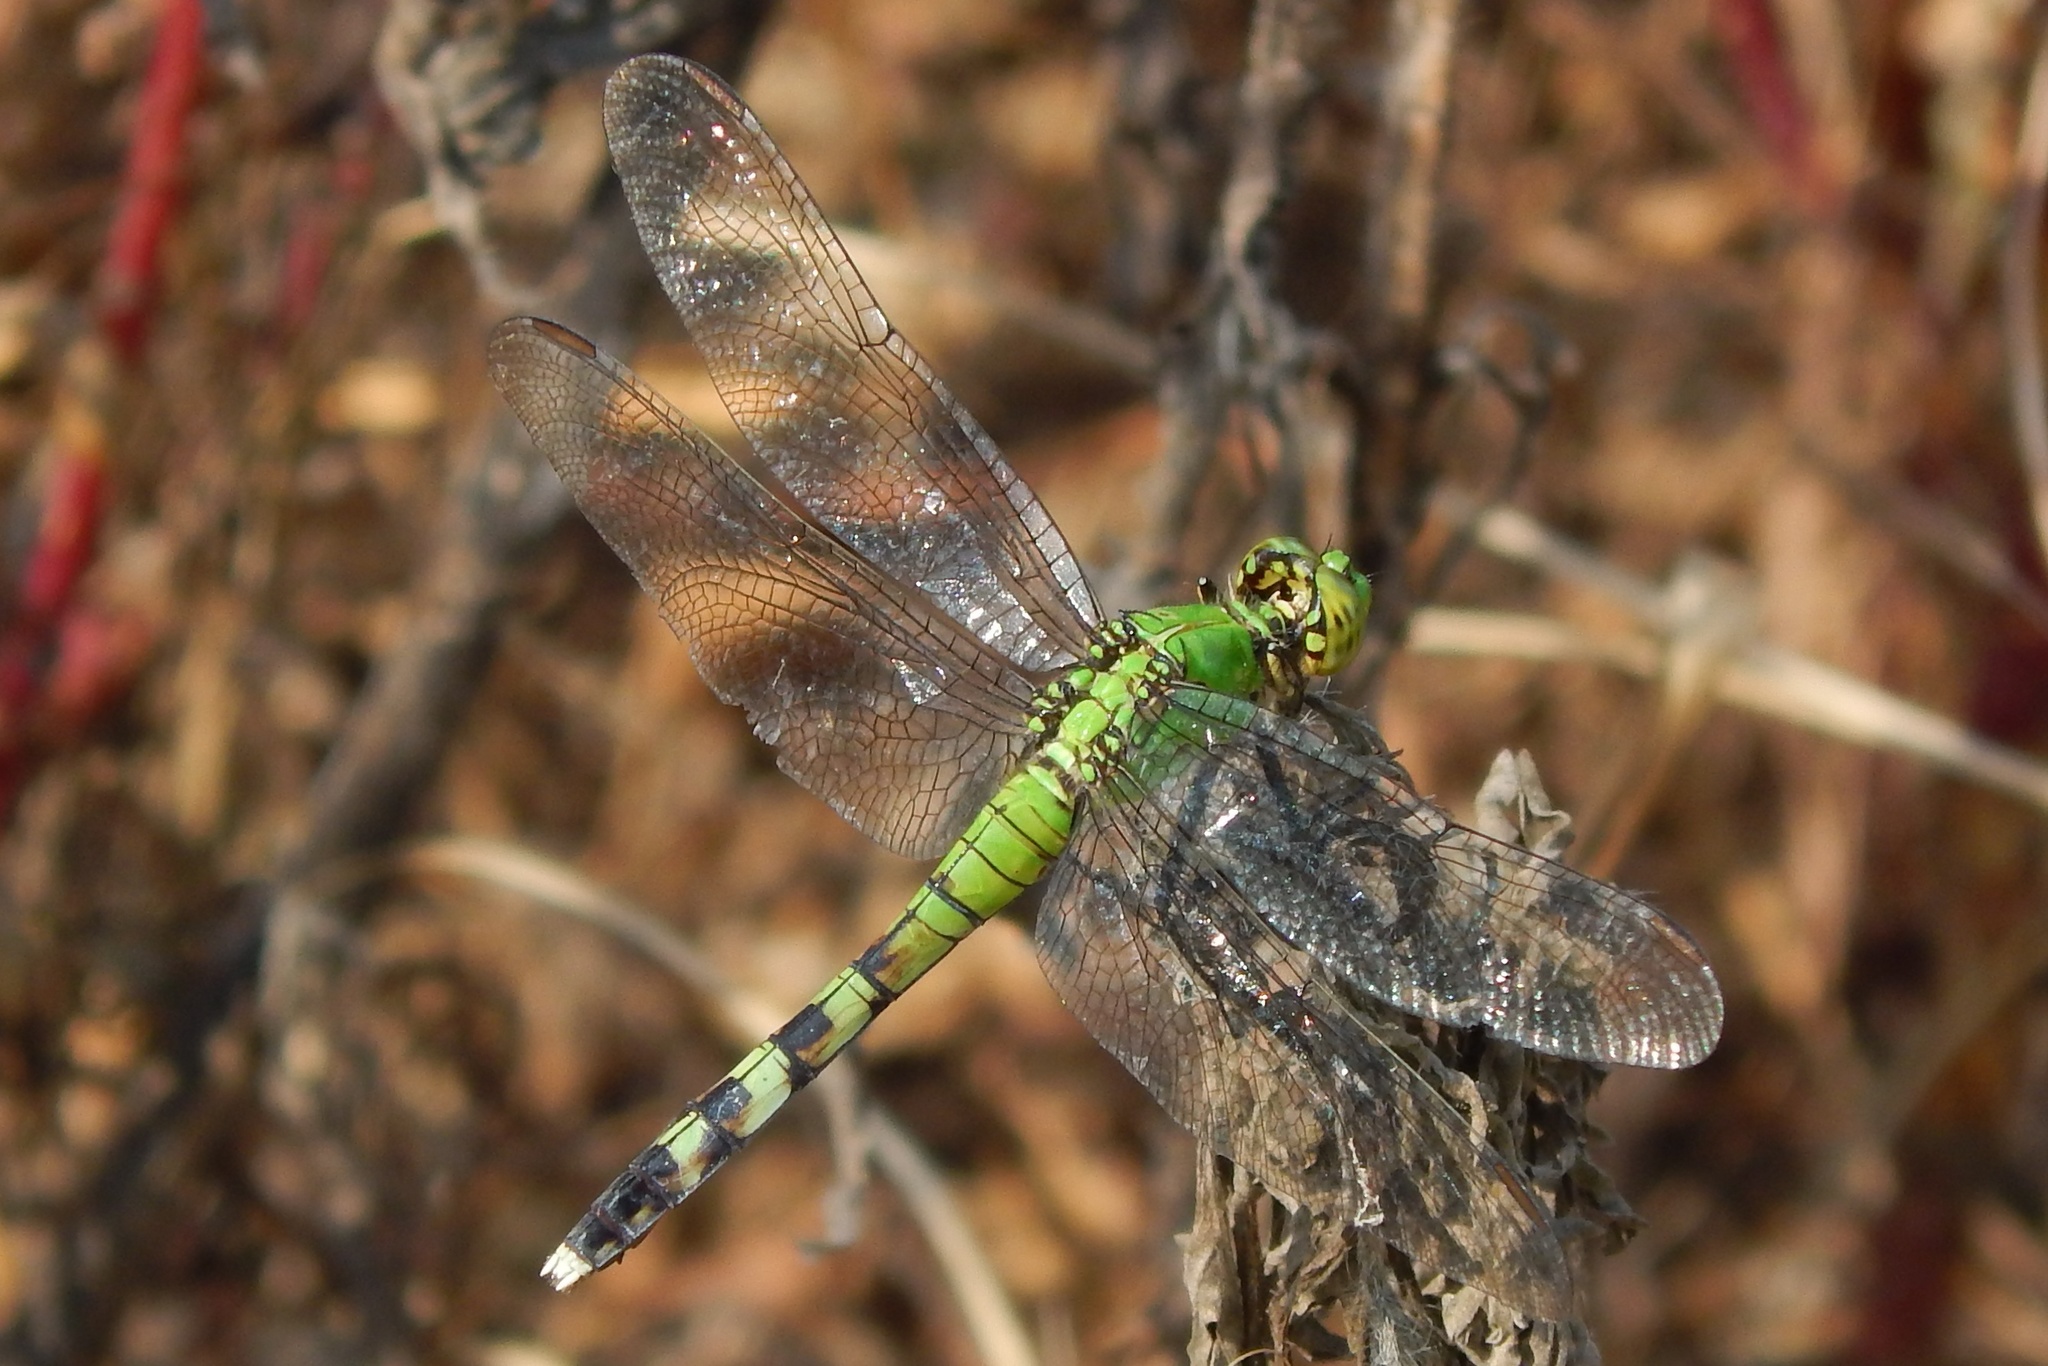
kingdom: Animalia
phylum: Arthropoda
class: Insecta
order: Odonata
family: Libellulidae
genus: Erythemis
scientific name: Erythemis simplicicollis
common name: Eastern pondhawk
